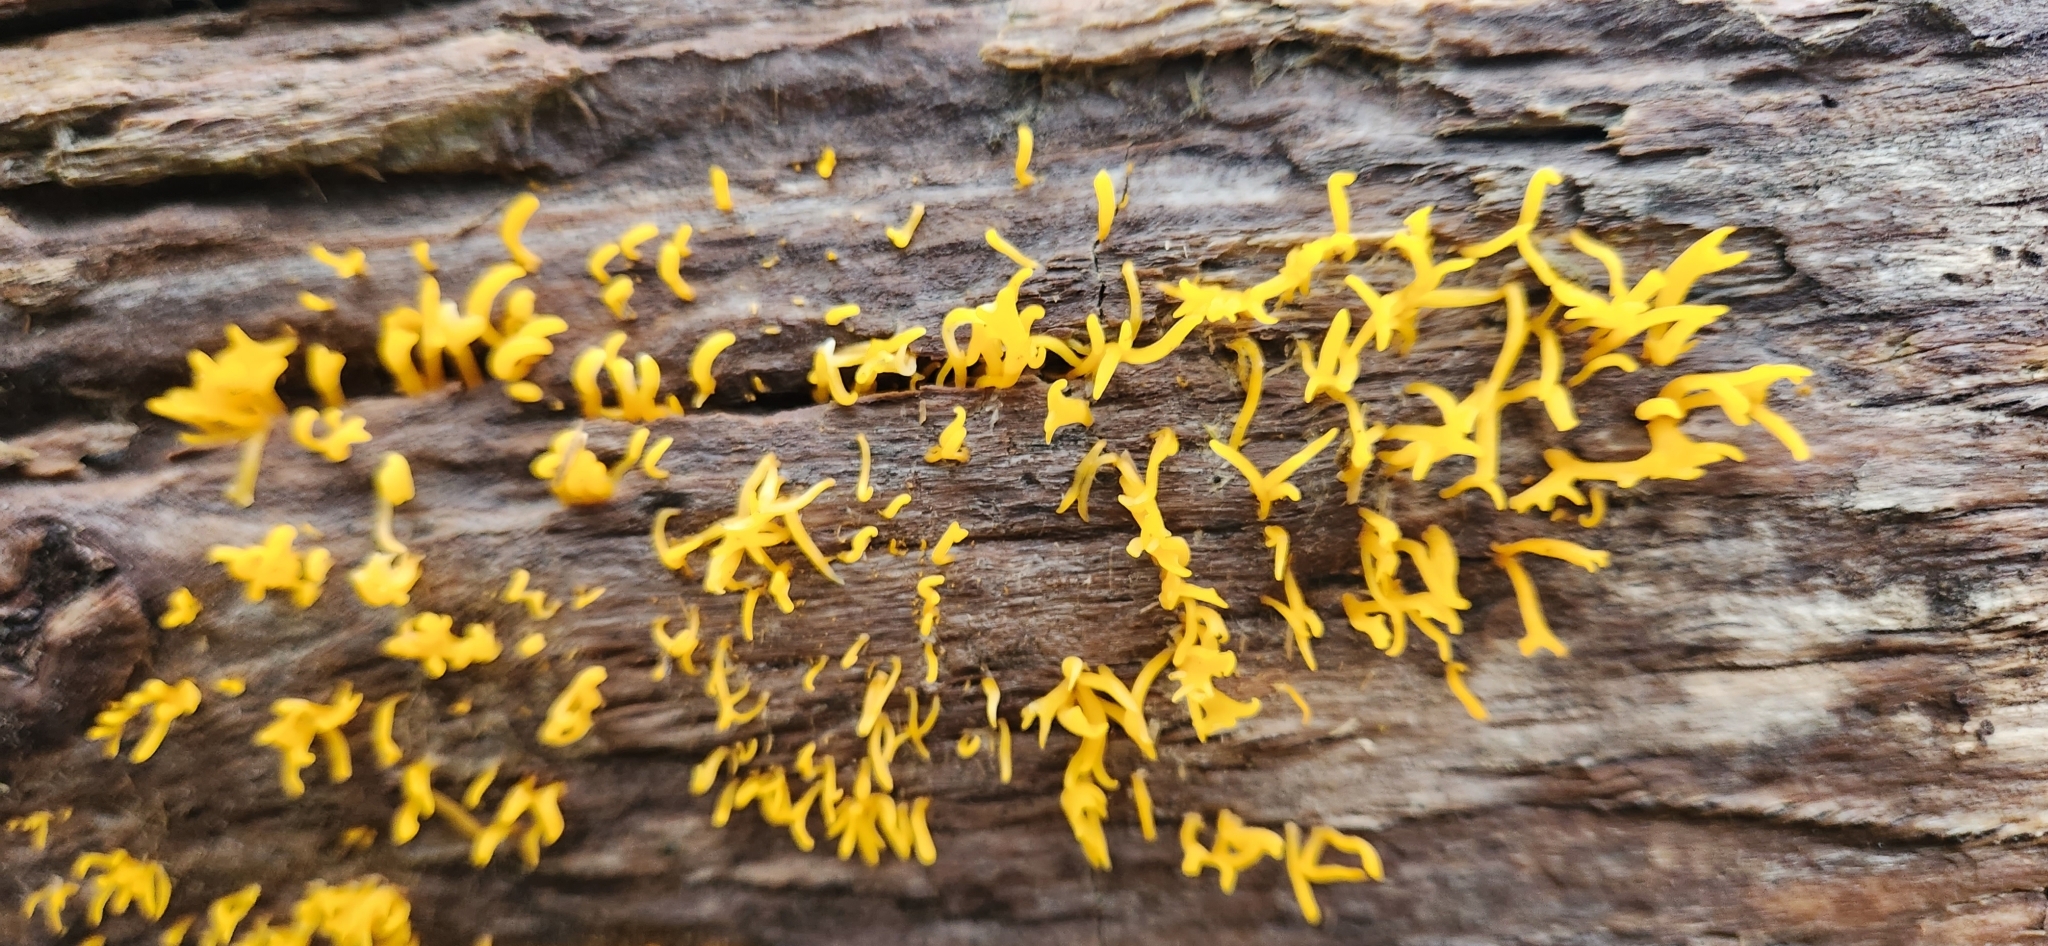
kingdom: Fungi
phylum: Basidiomycota
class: Dacrymycetes
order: Dacrymycetales
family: Dacrymycetaceae
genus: Calocera
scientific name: Calocera cornea
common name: Small stagshorn
